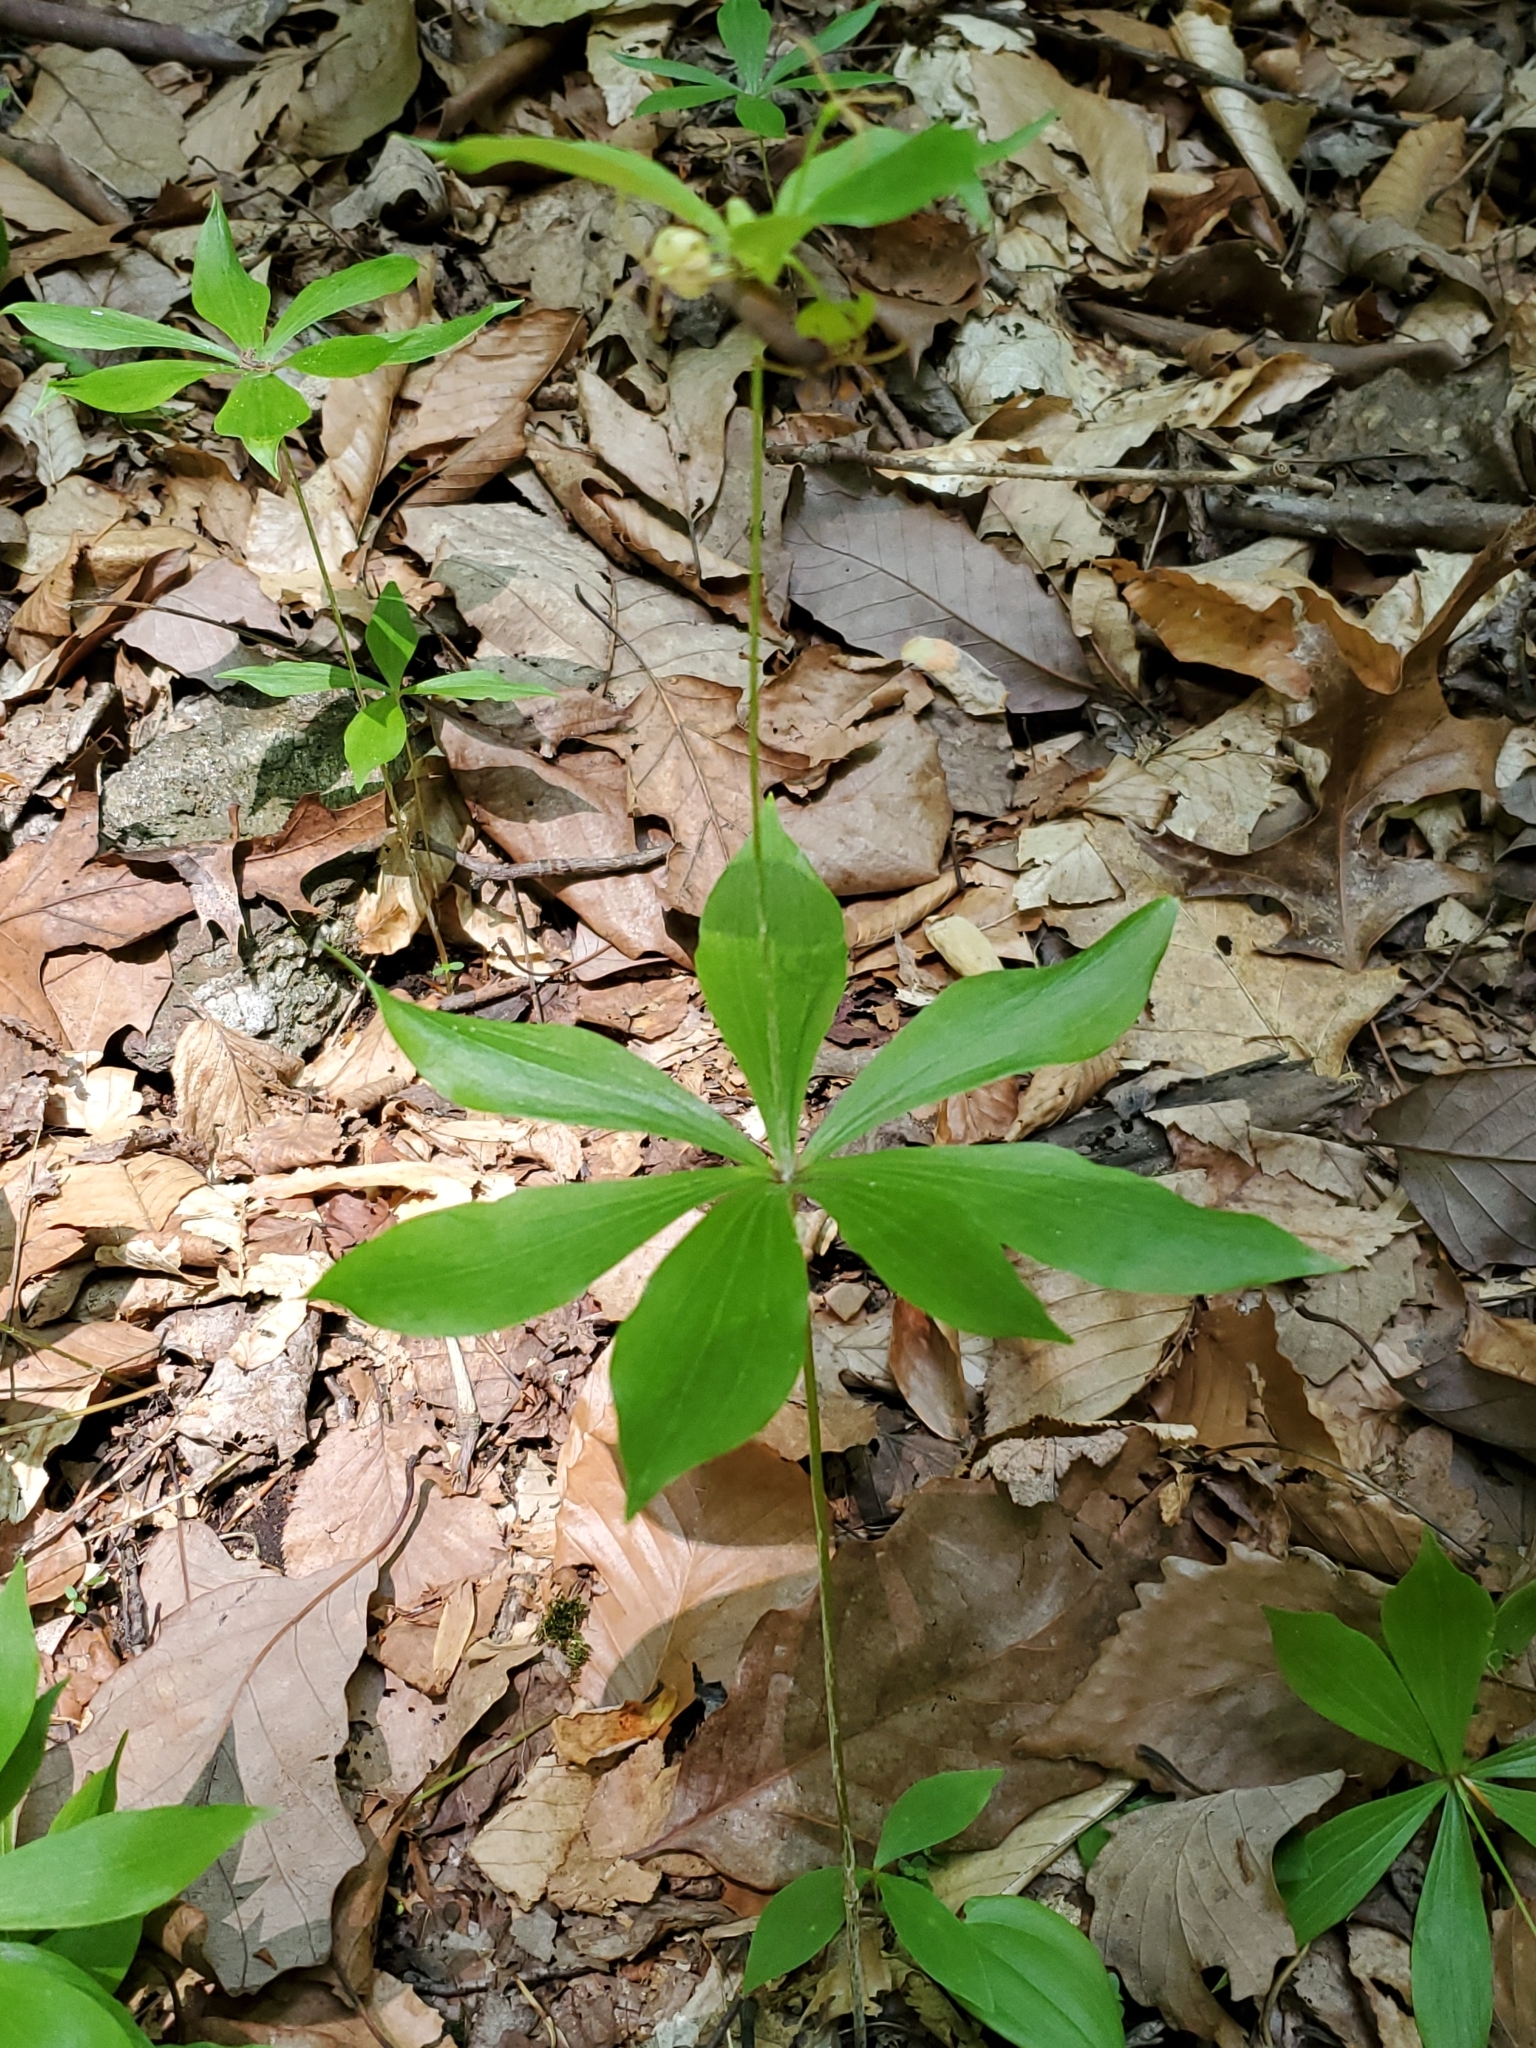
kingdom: Plantae
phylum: Tracheophyta
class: Liliopsida
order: Liliales
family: Liliaceae
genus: Medeola
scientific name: Medeola virginiana
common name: Indian cucumber-root
